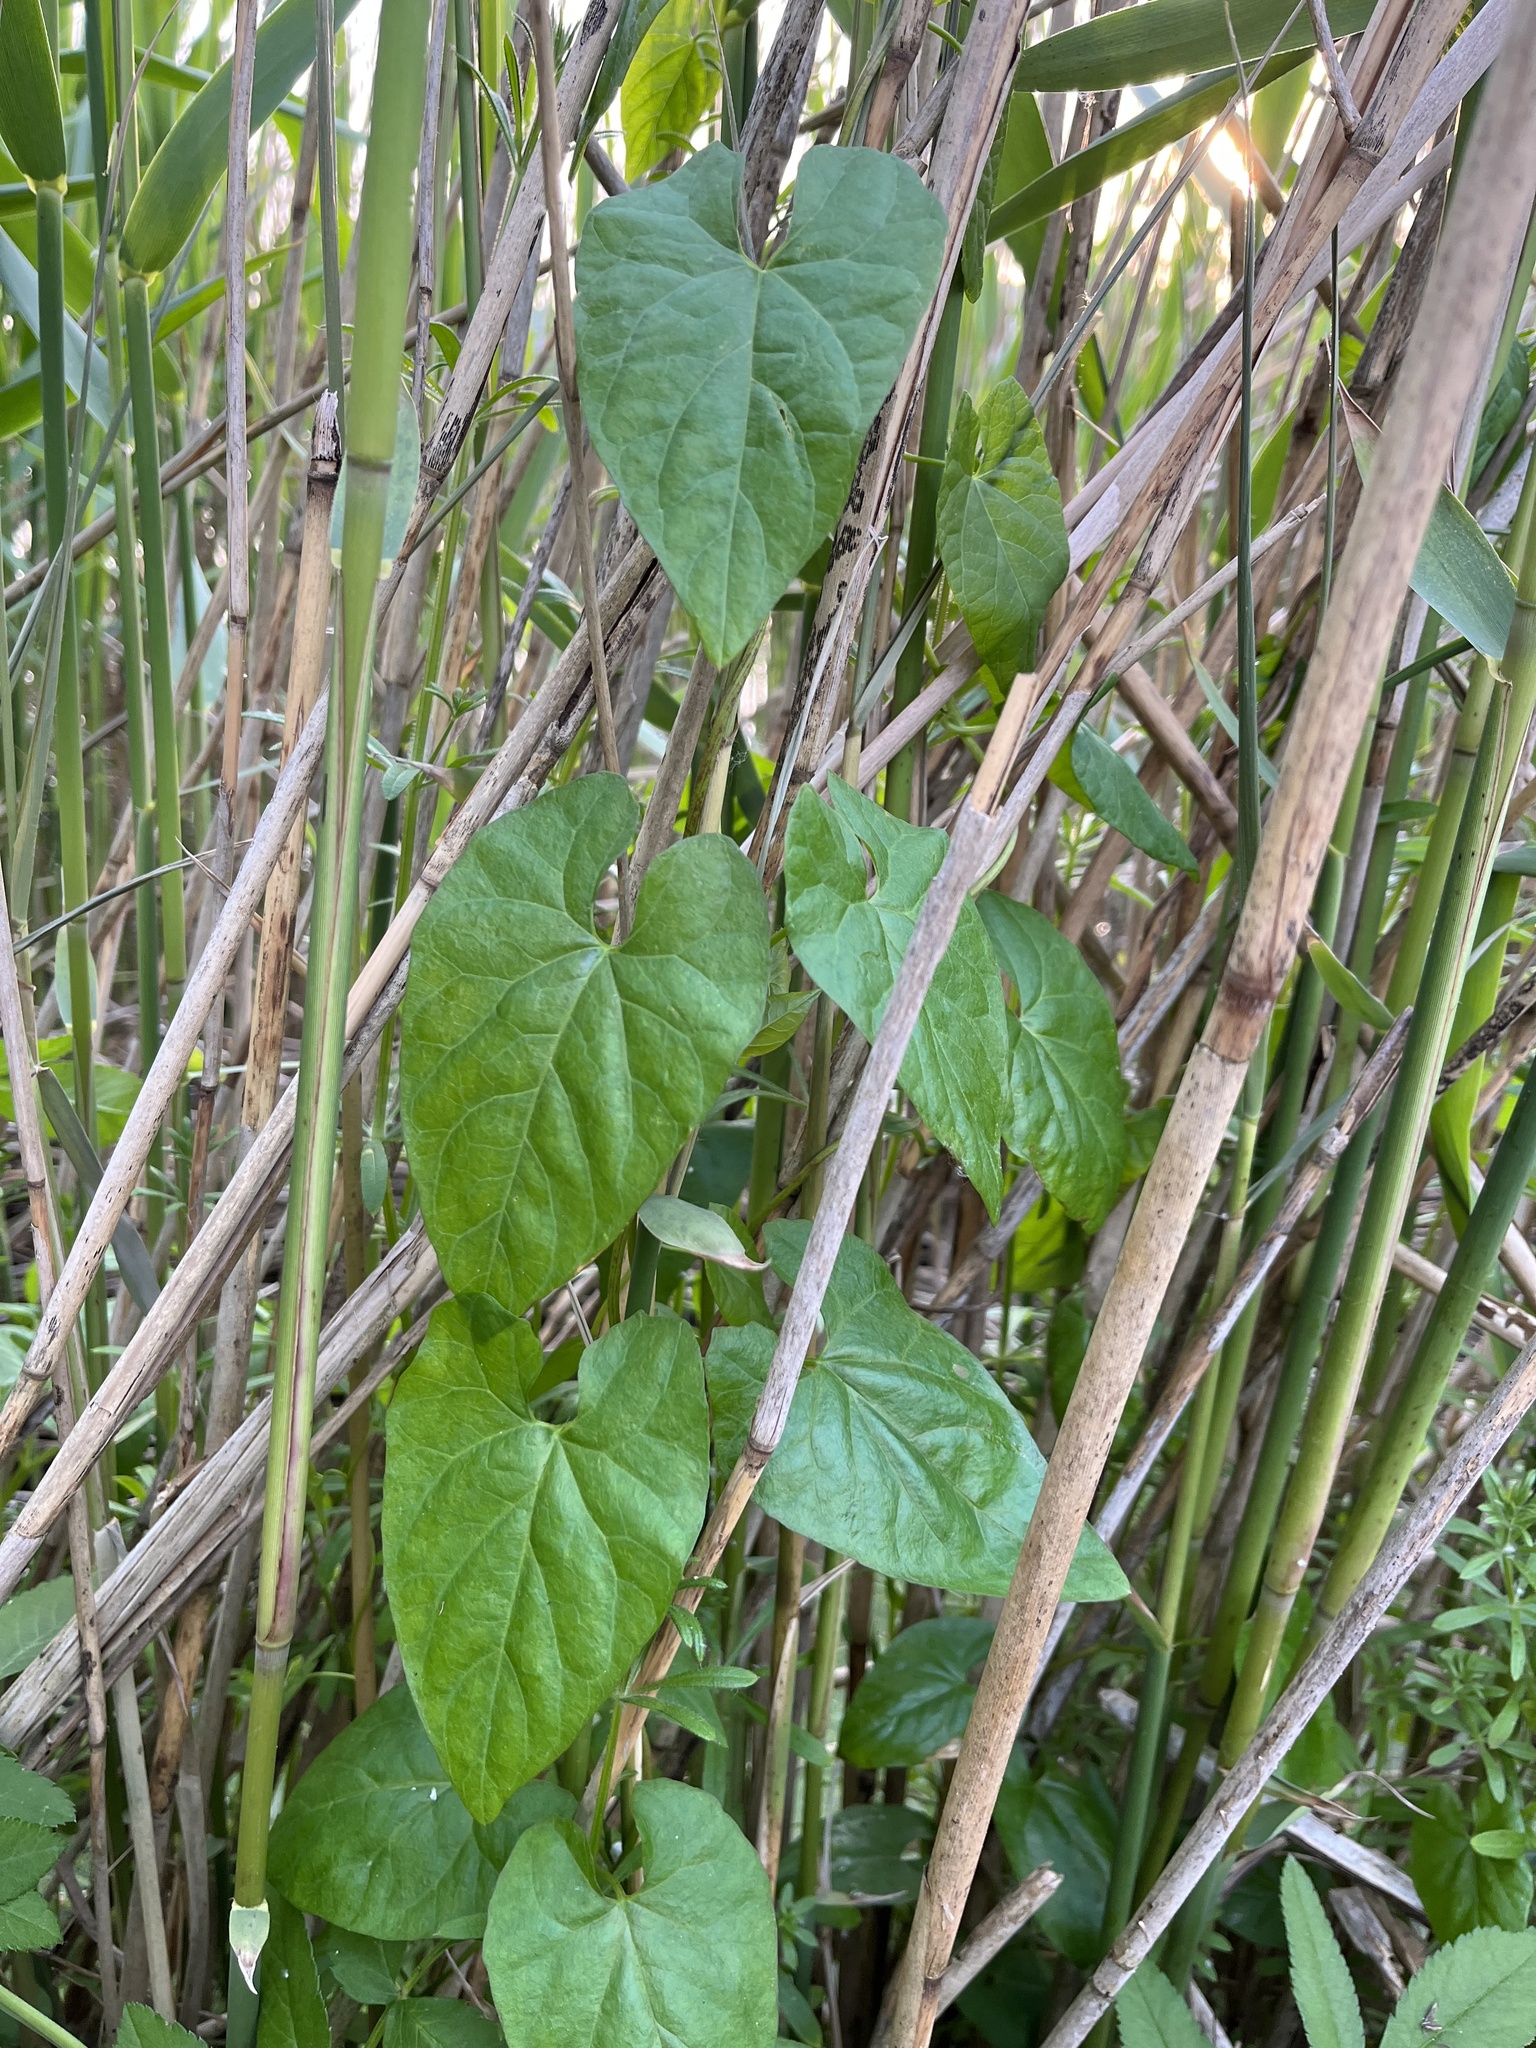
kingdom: Plantae
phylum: Tracheophyta
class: Magnoliopsida
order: Solanales
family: Convolvulaceae
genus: Calystegia
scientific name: Calystegia
